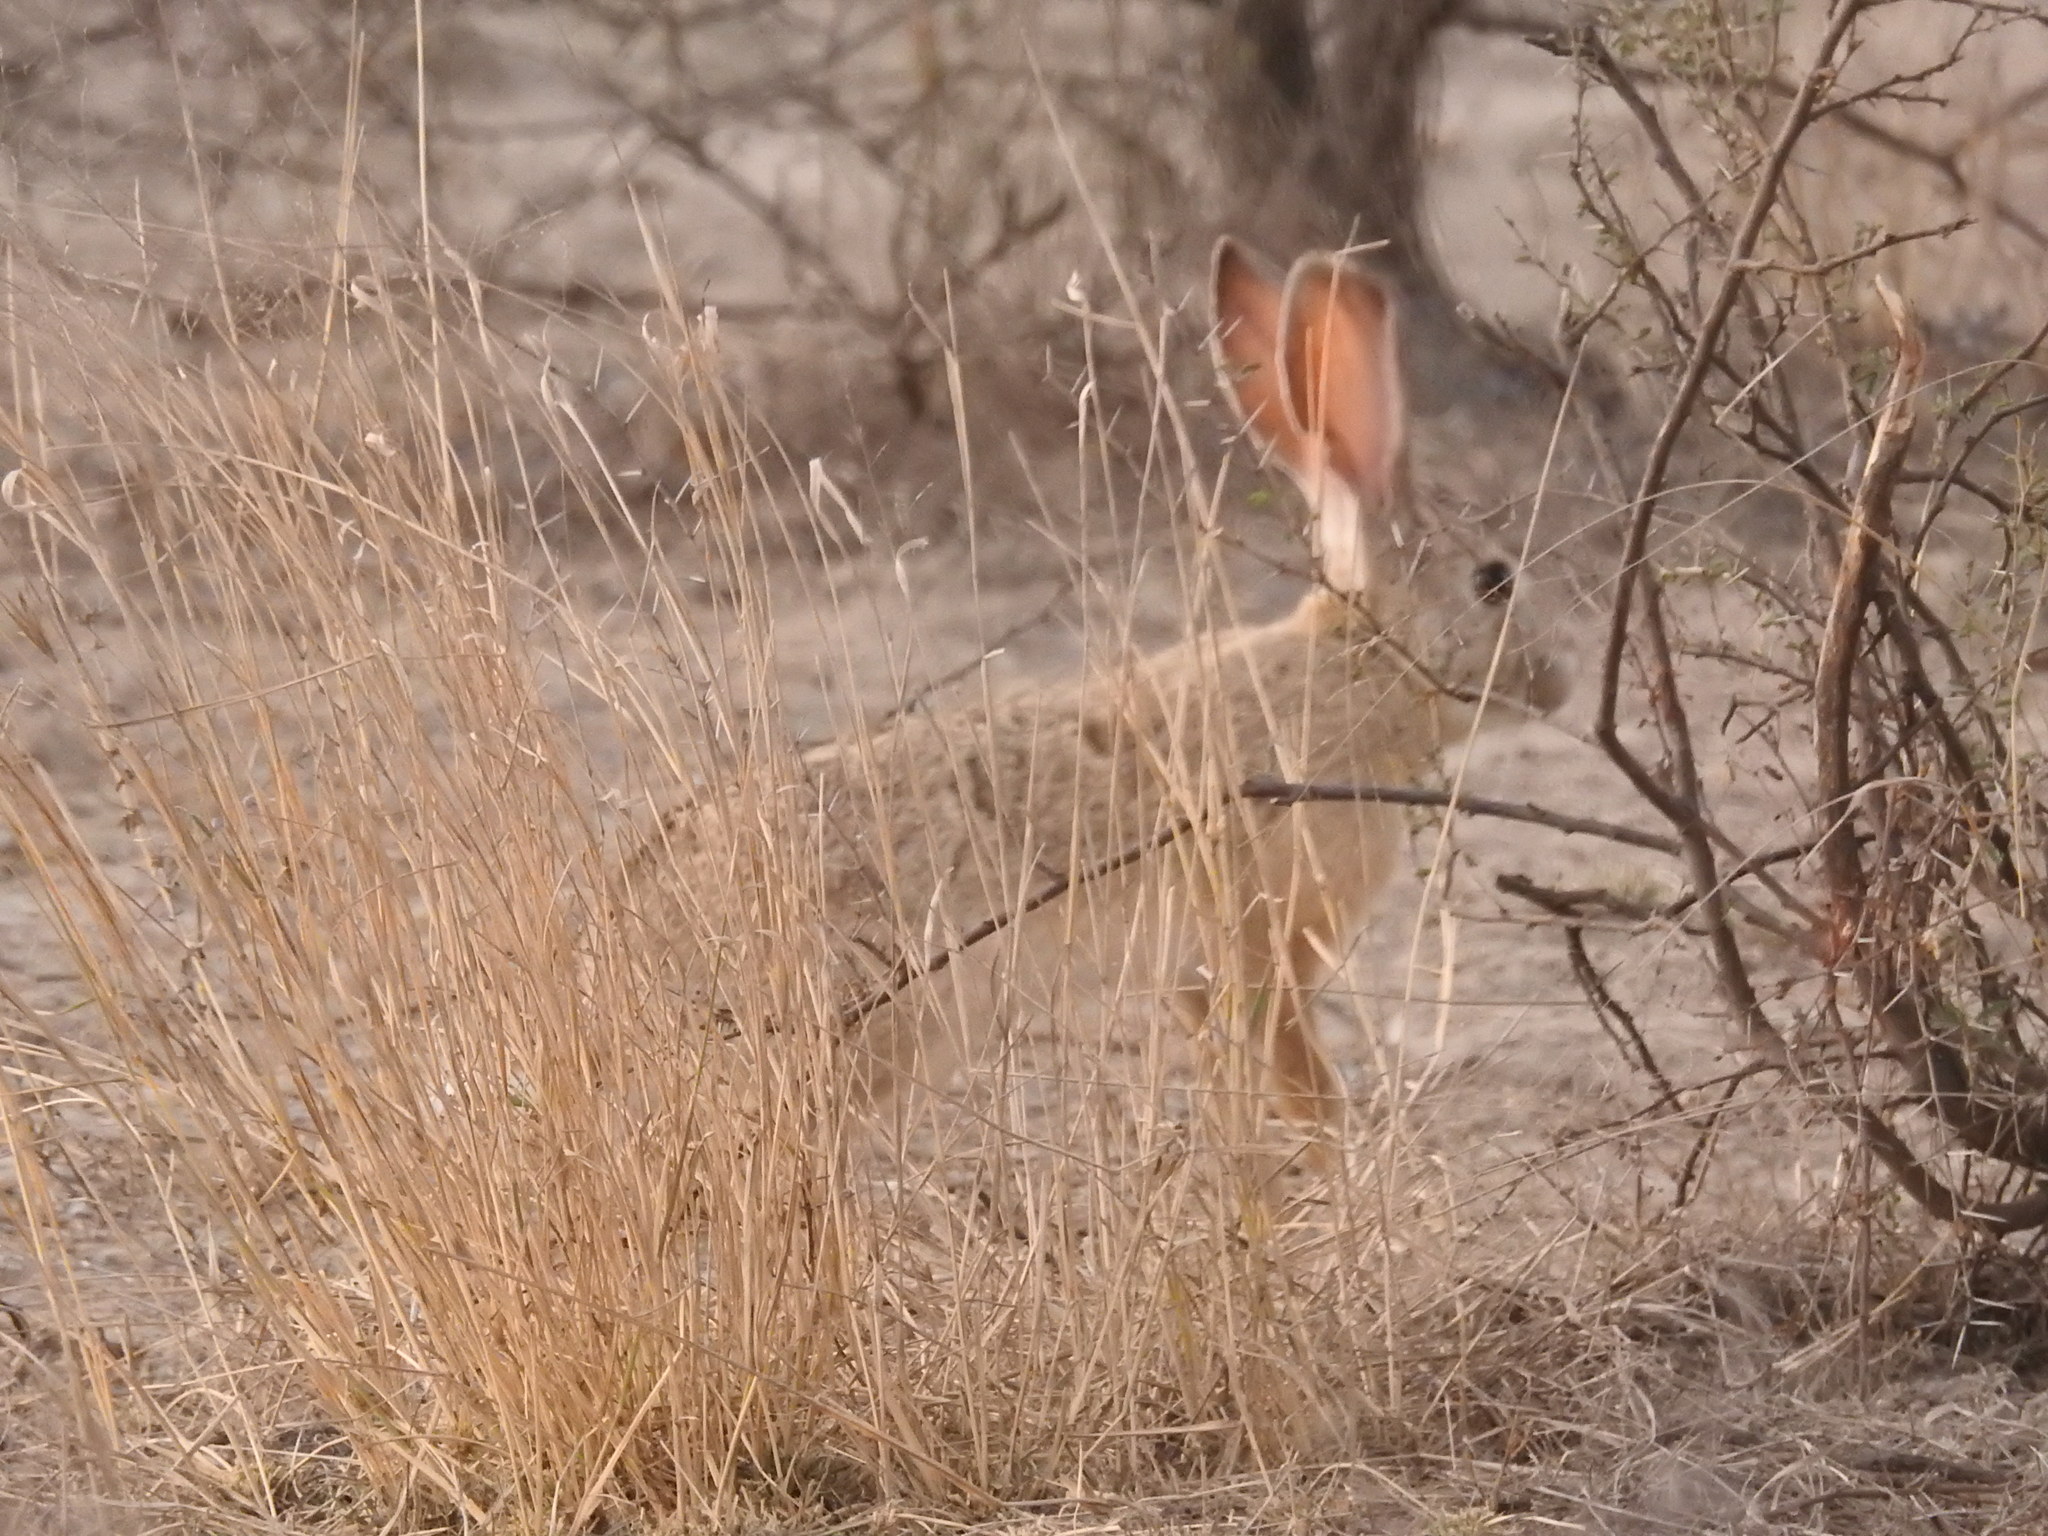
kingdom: Animalia
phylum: Chordata
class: Mammalia
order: Lagomorpha
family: Leporidae
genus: Lepus
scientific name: Lepus nigricollis
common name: Indian hare
